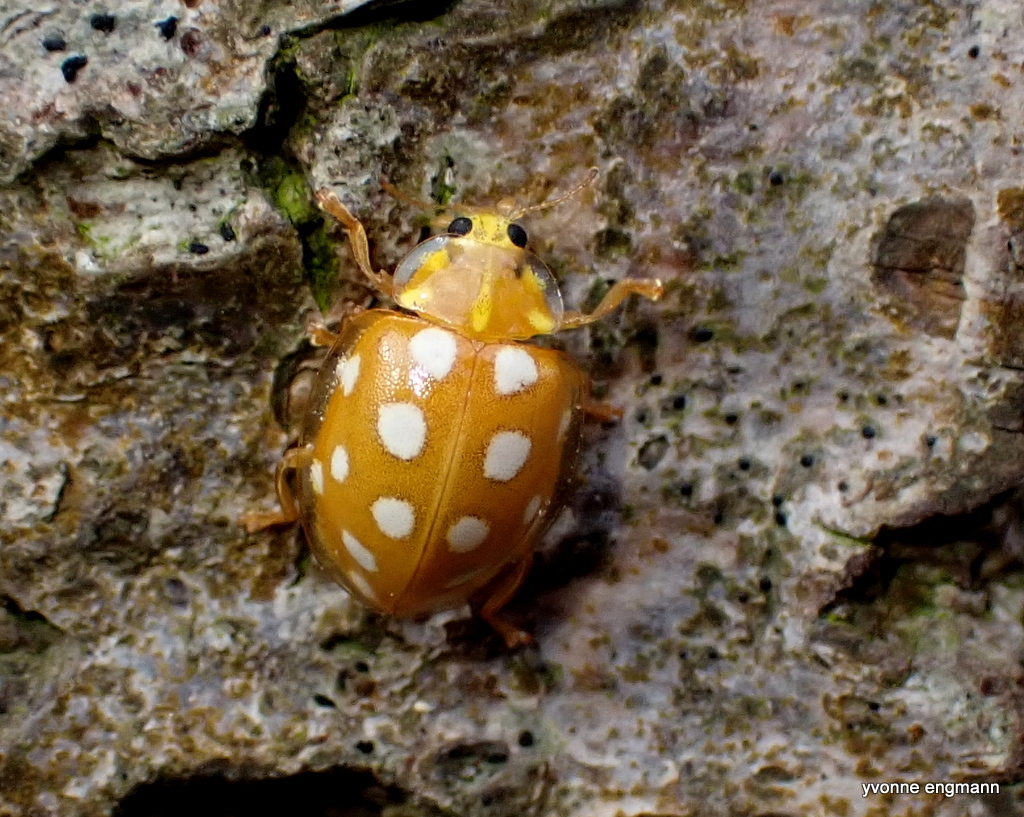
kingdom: Animalia
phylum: Arthropoda
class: Insecta
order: Coleoptera
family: Coccinellidae
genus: Halyzia
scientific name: Halyzia sedecimguttata
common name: Orange ladybird
